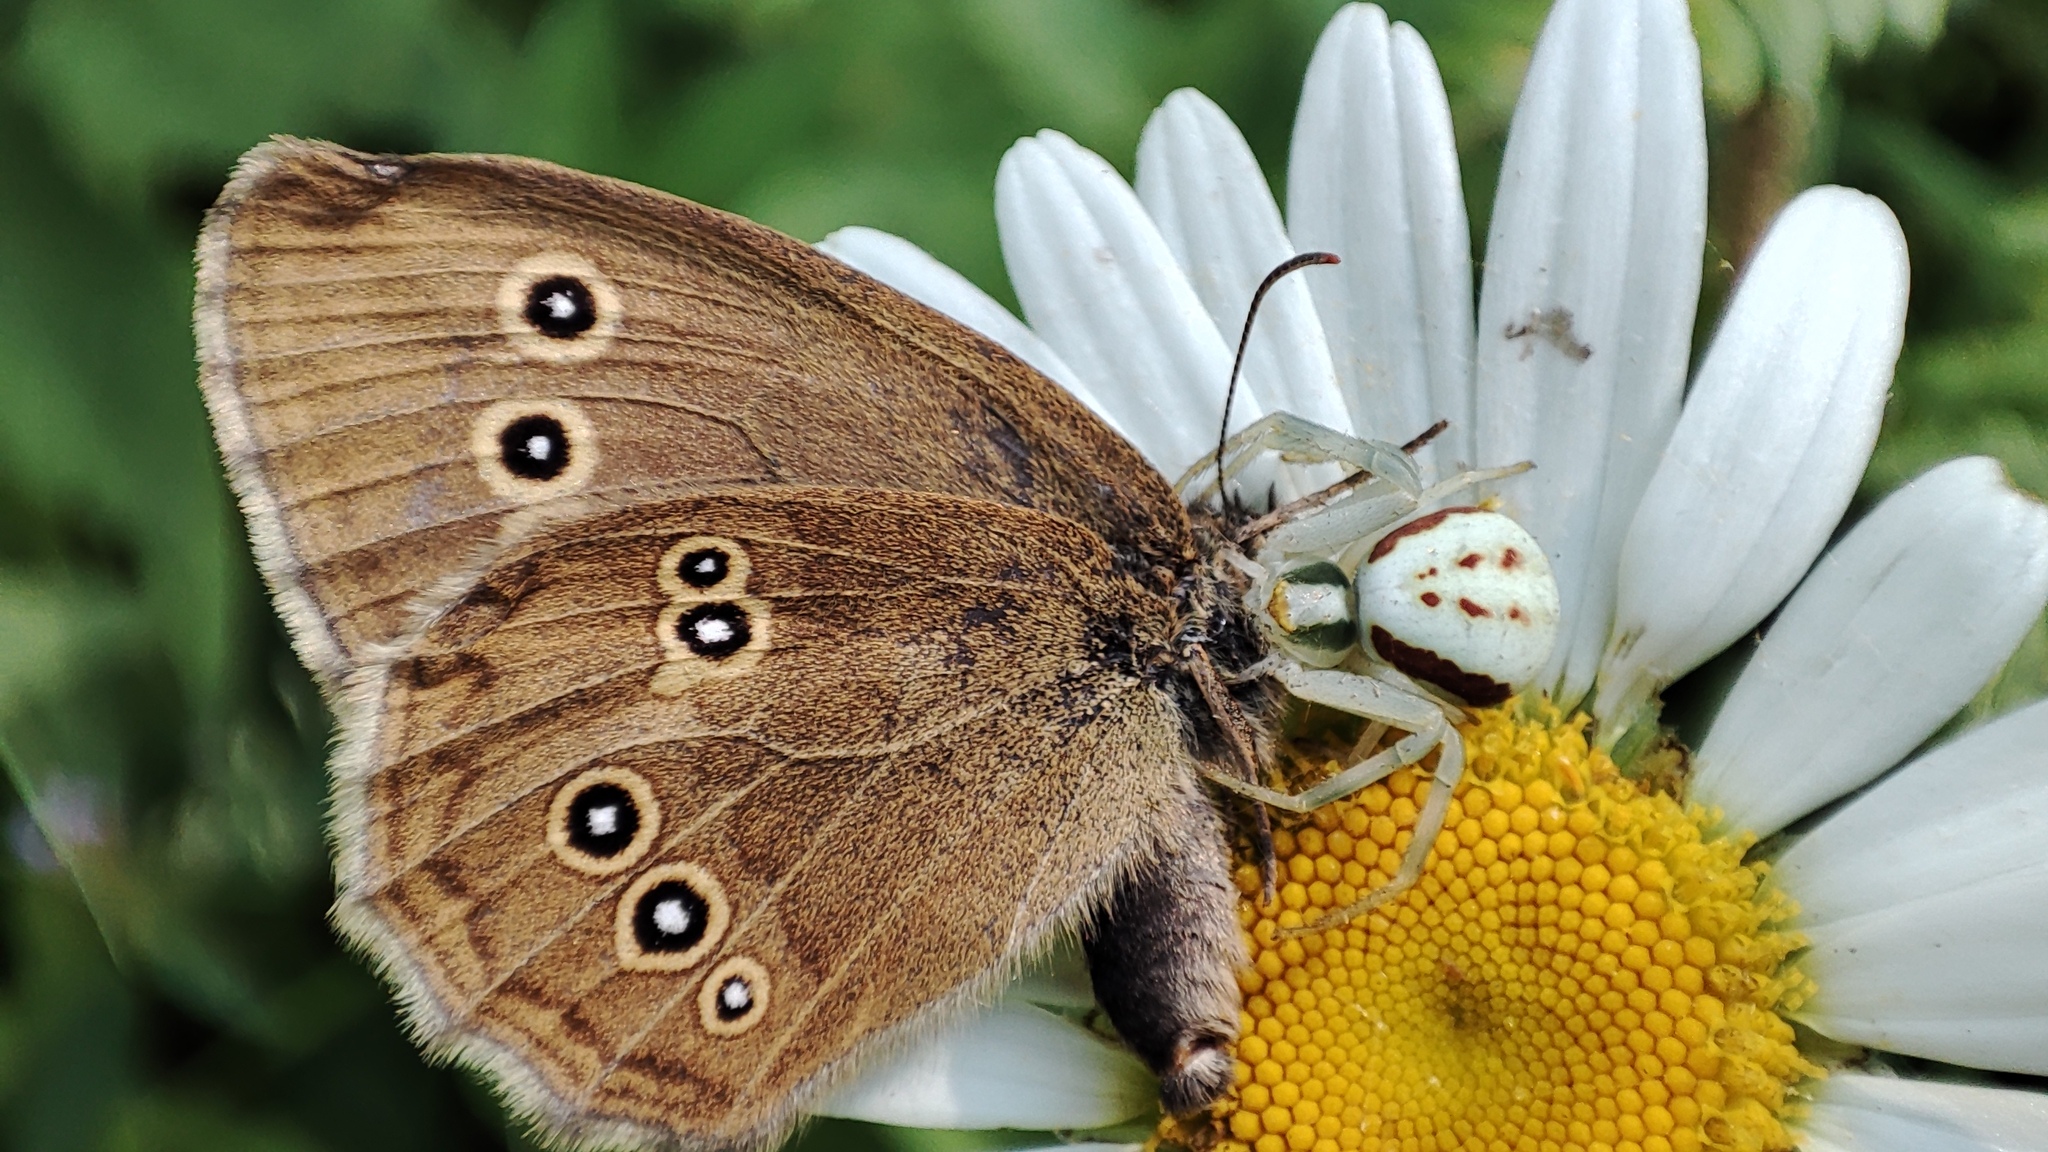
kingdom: Animalia
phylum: Arthropoda
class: Insecta
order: Lepidoptera
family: Nymphalidae
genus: Aphantopus
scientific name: Aphantopus hyperantus
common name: Ringlet
